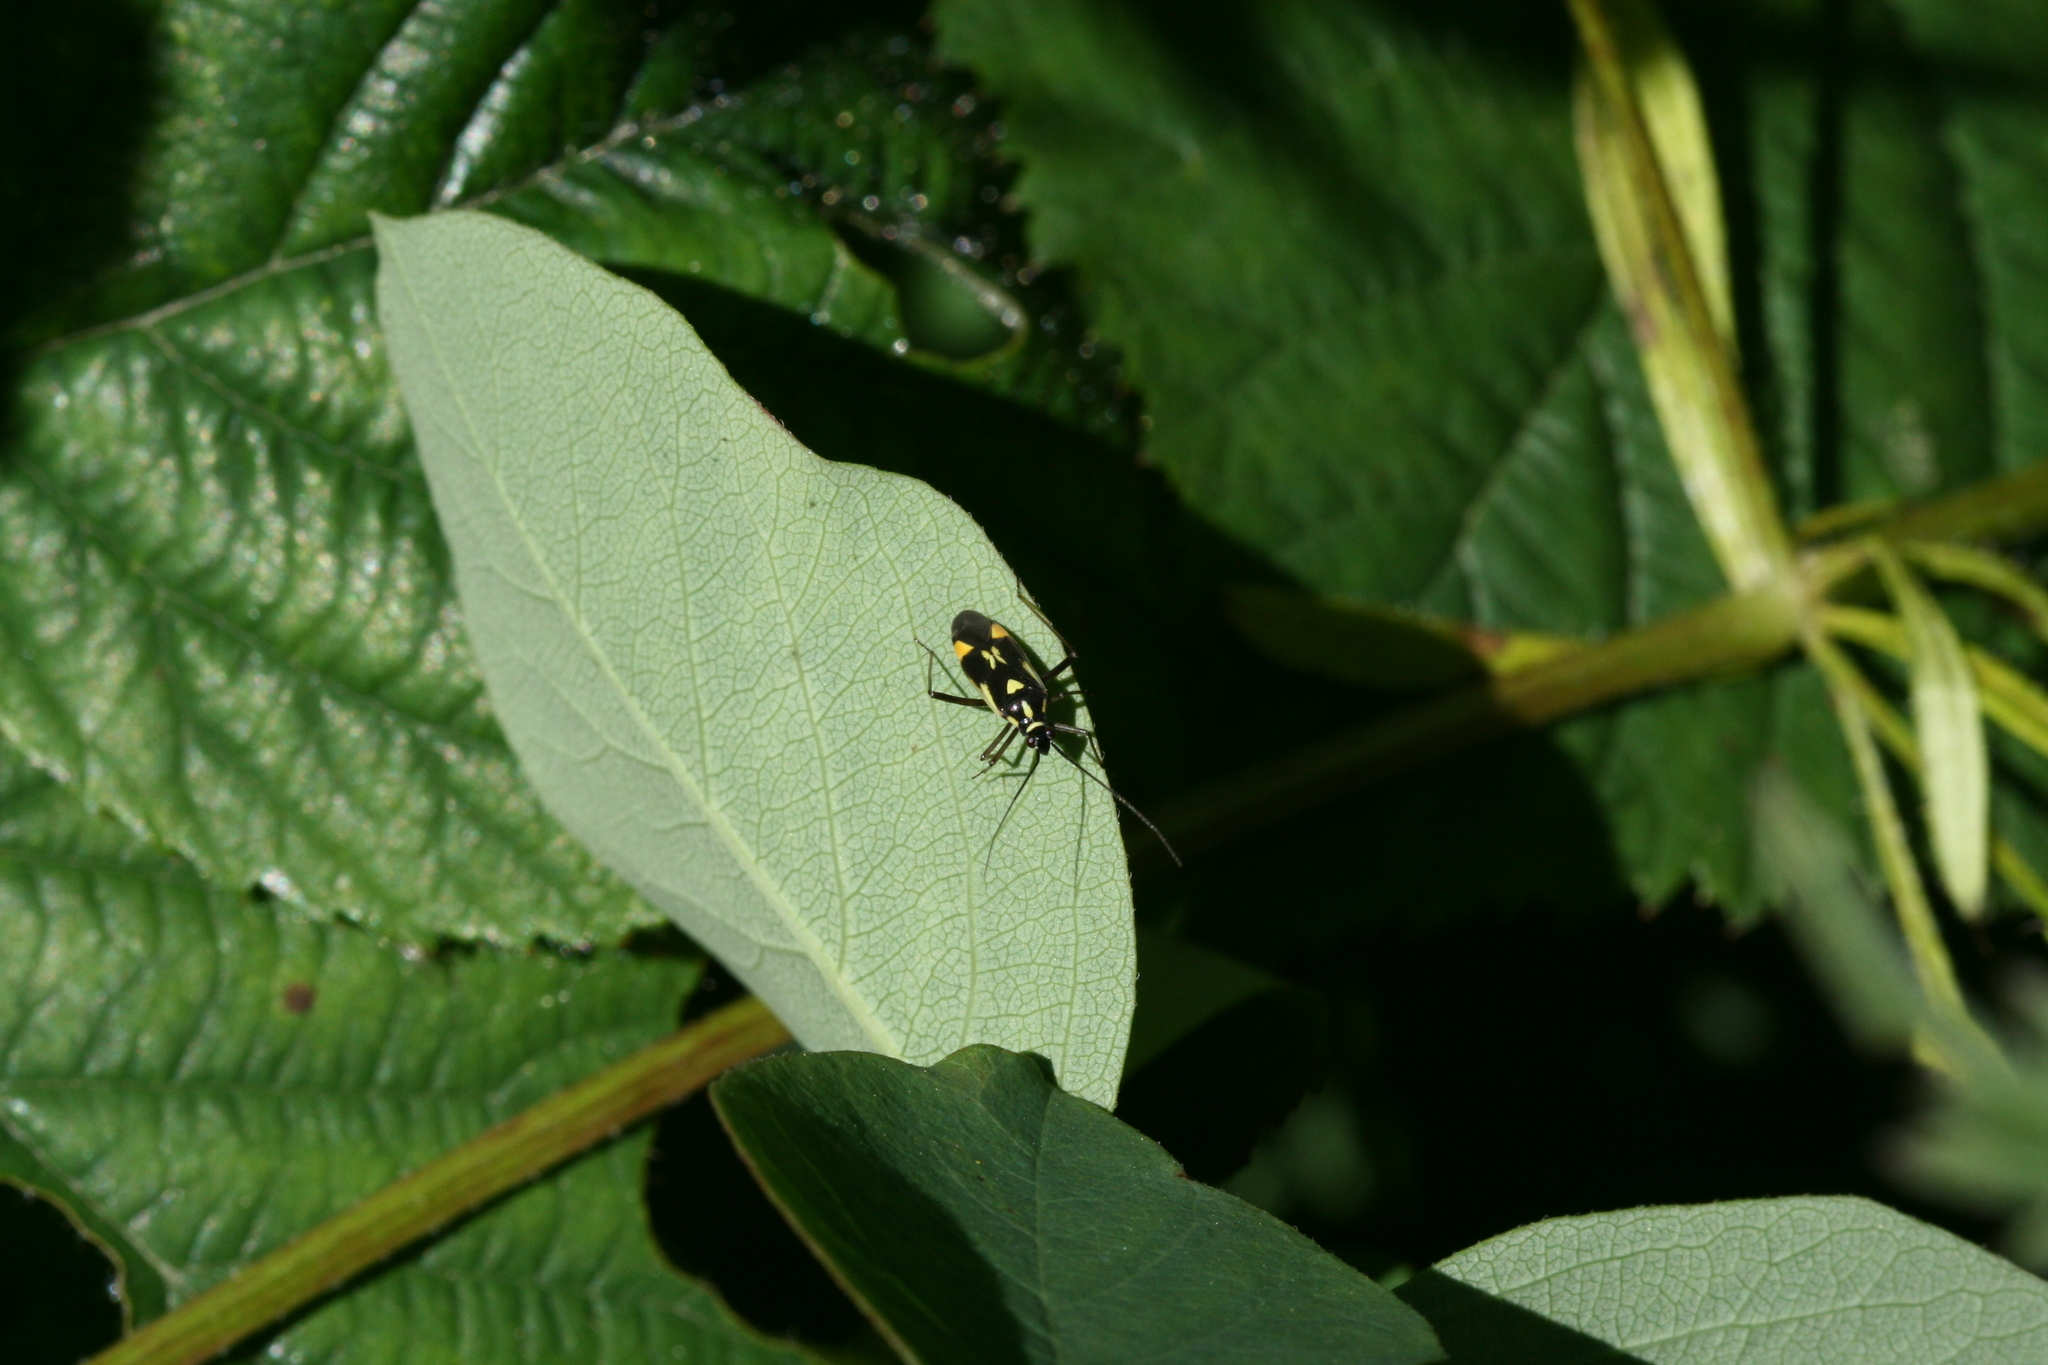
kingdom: Animalia
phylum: Arthropoda
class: Insecta
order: Hemiptera
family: Miridae
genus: Grypocoris
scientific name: Grypocoris stysi
